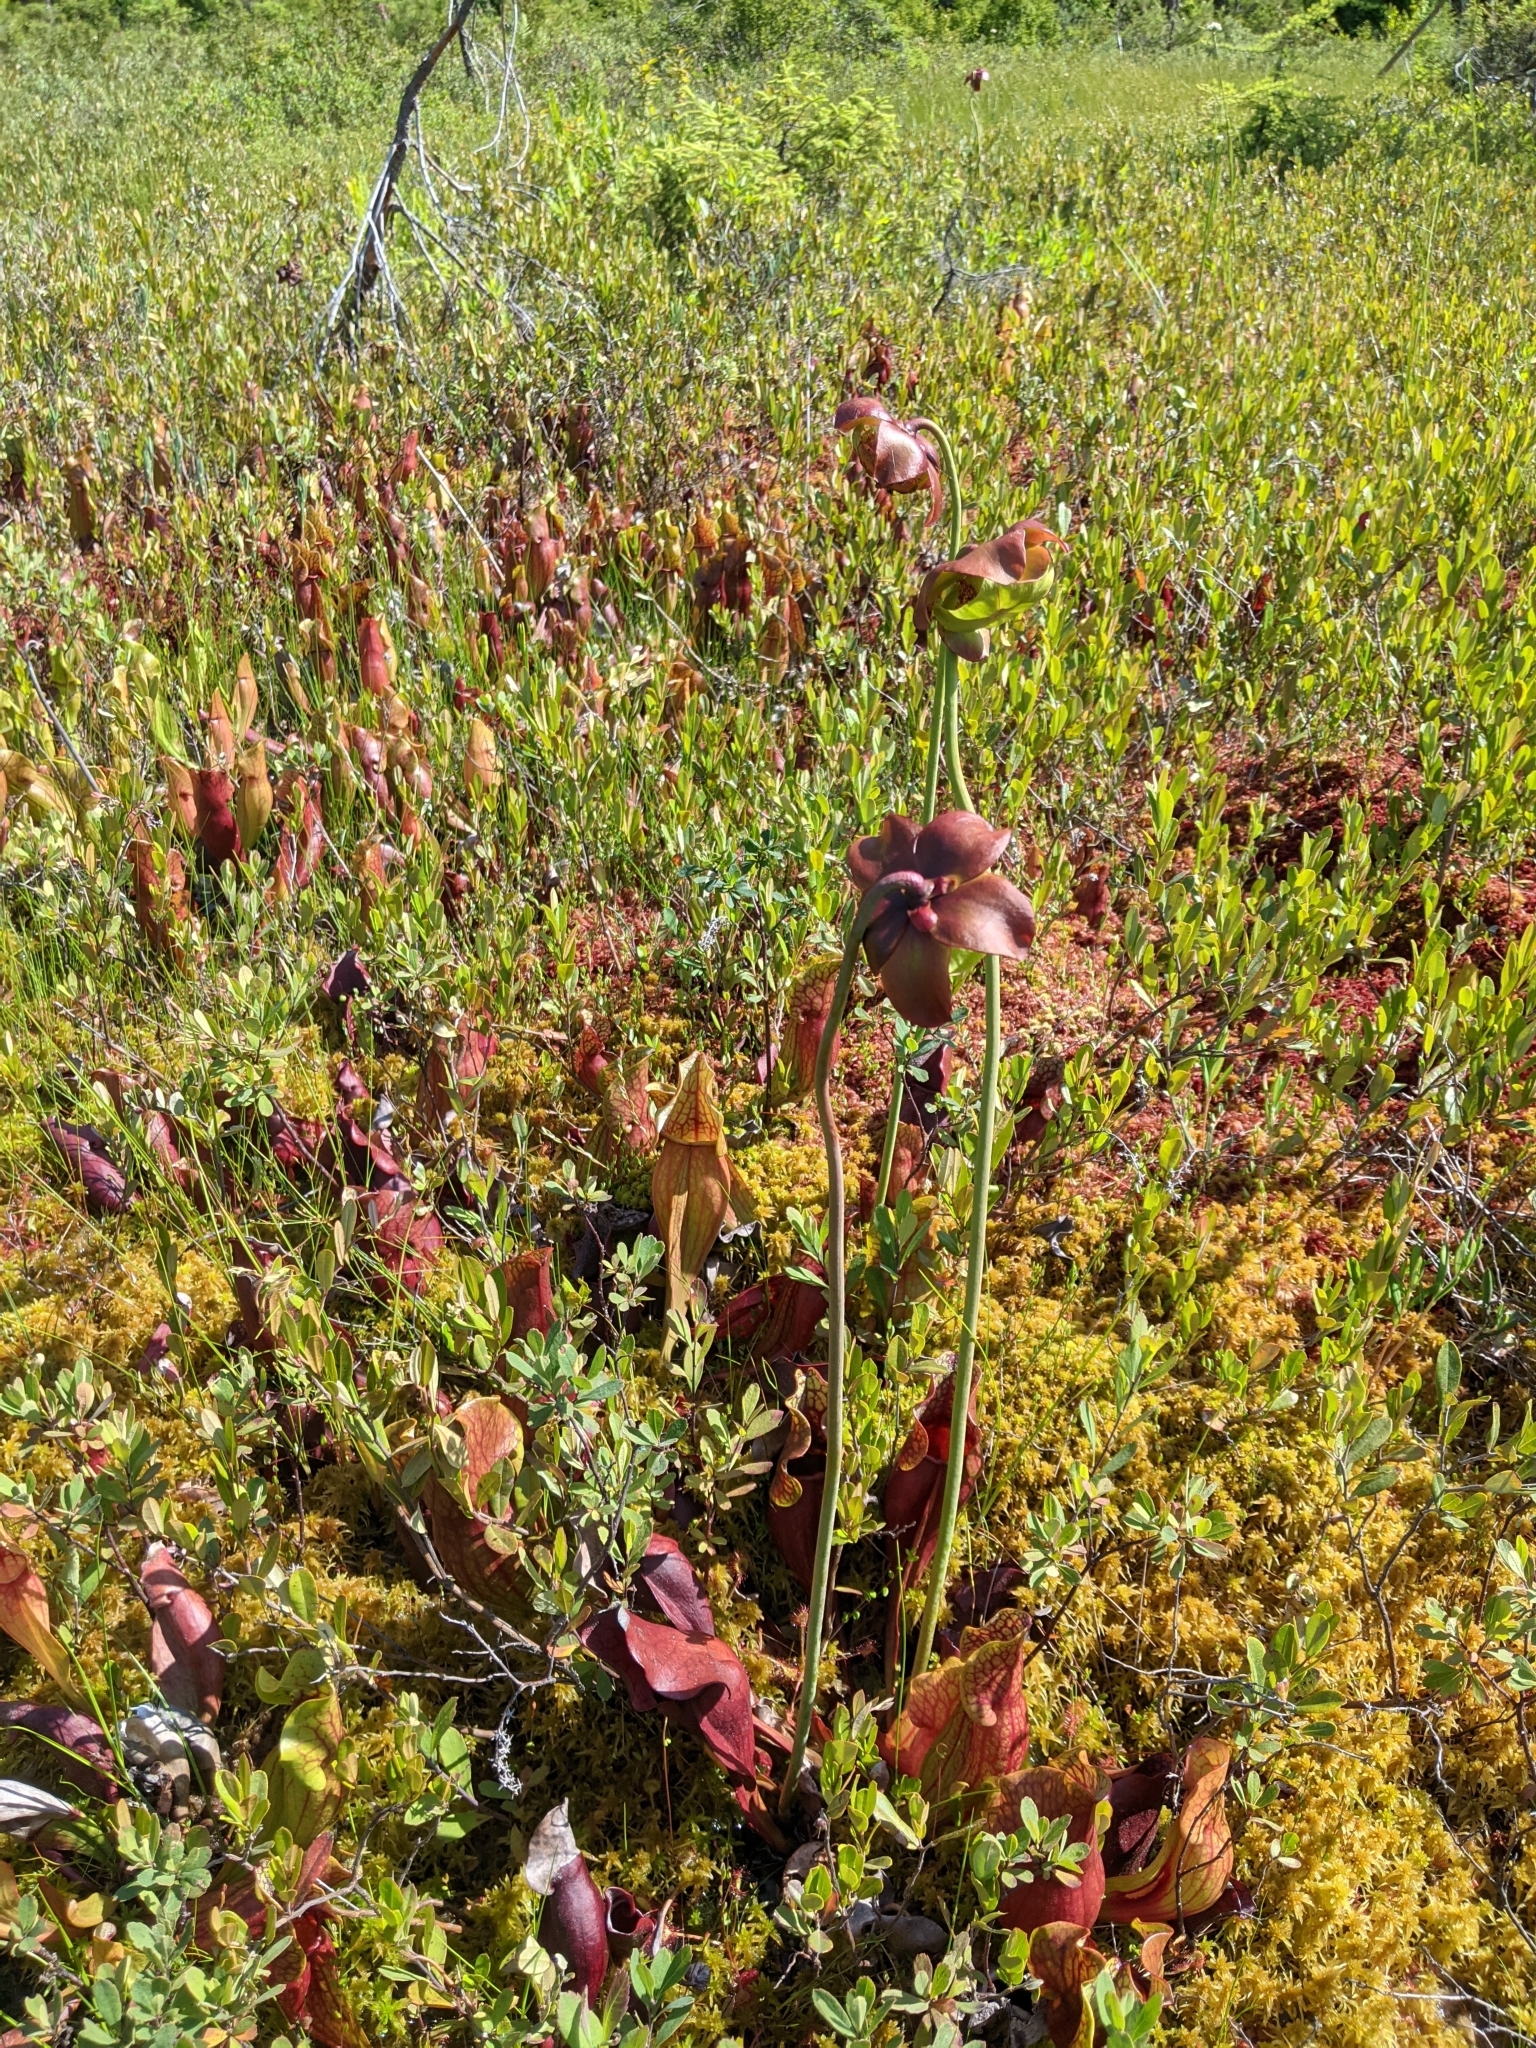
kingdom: Plantae
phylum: Tracheophyta
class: Magnoliopsida
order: Ericales
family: Sarraceniaceae
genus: Sarracenia
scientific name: Sarracenia purpurea
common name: Pitcherplant
